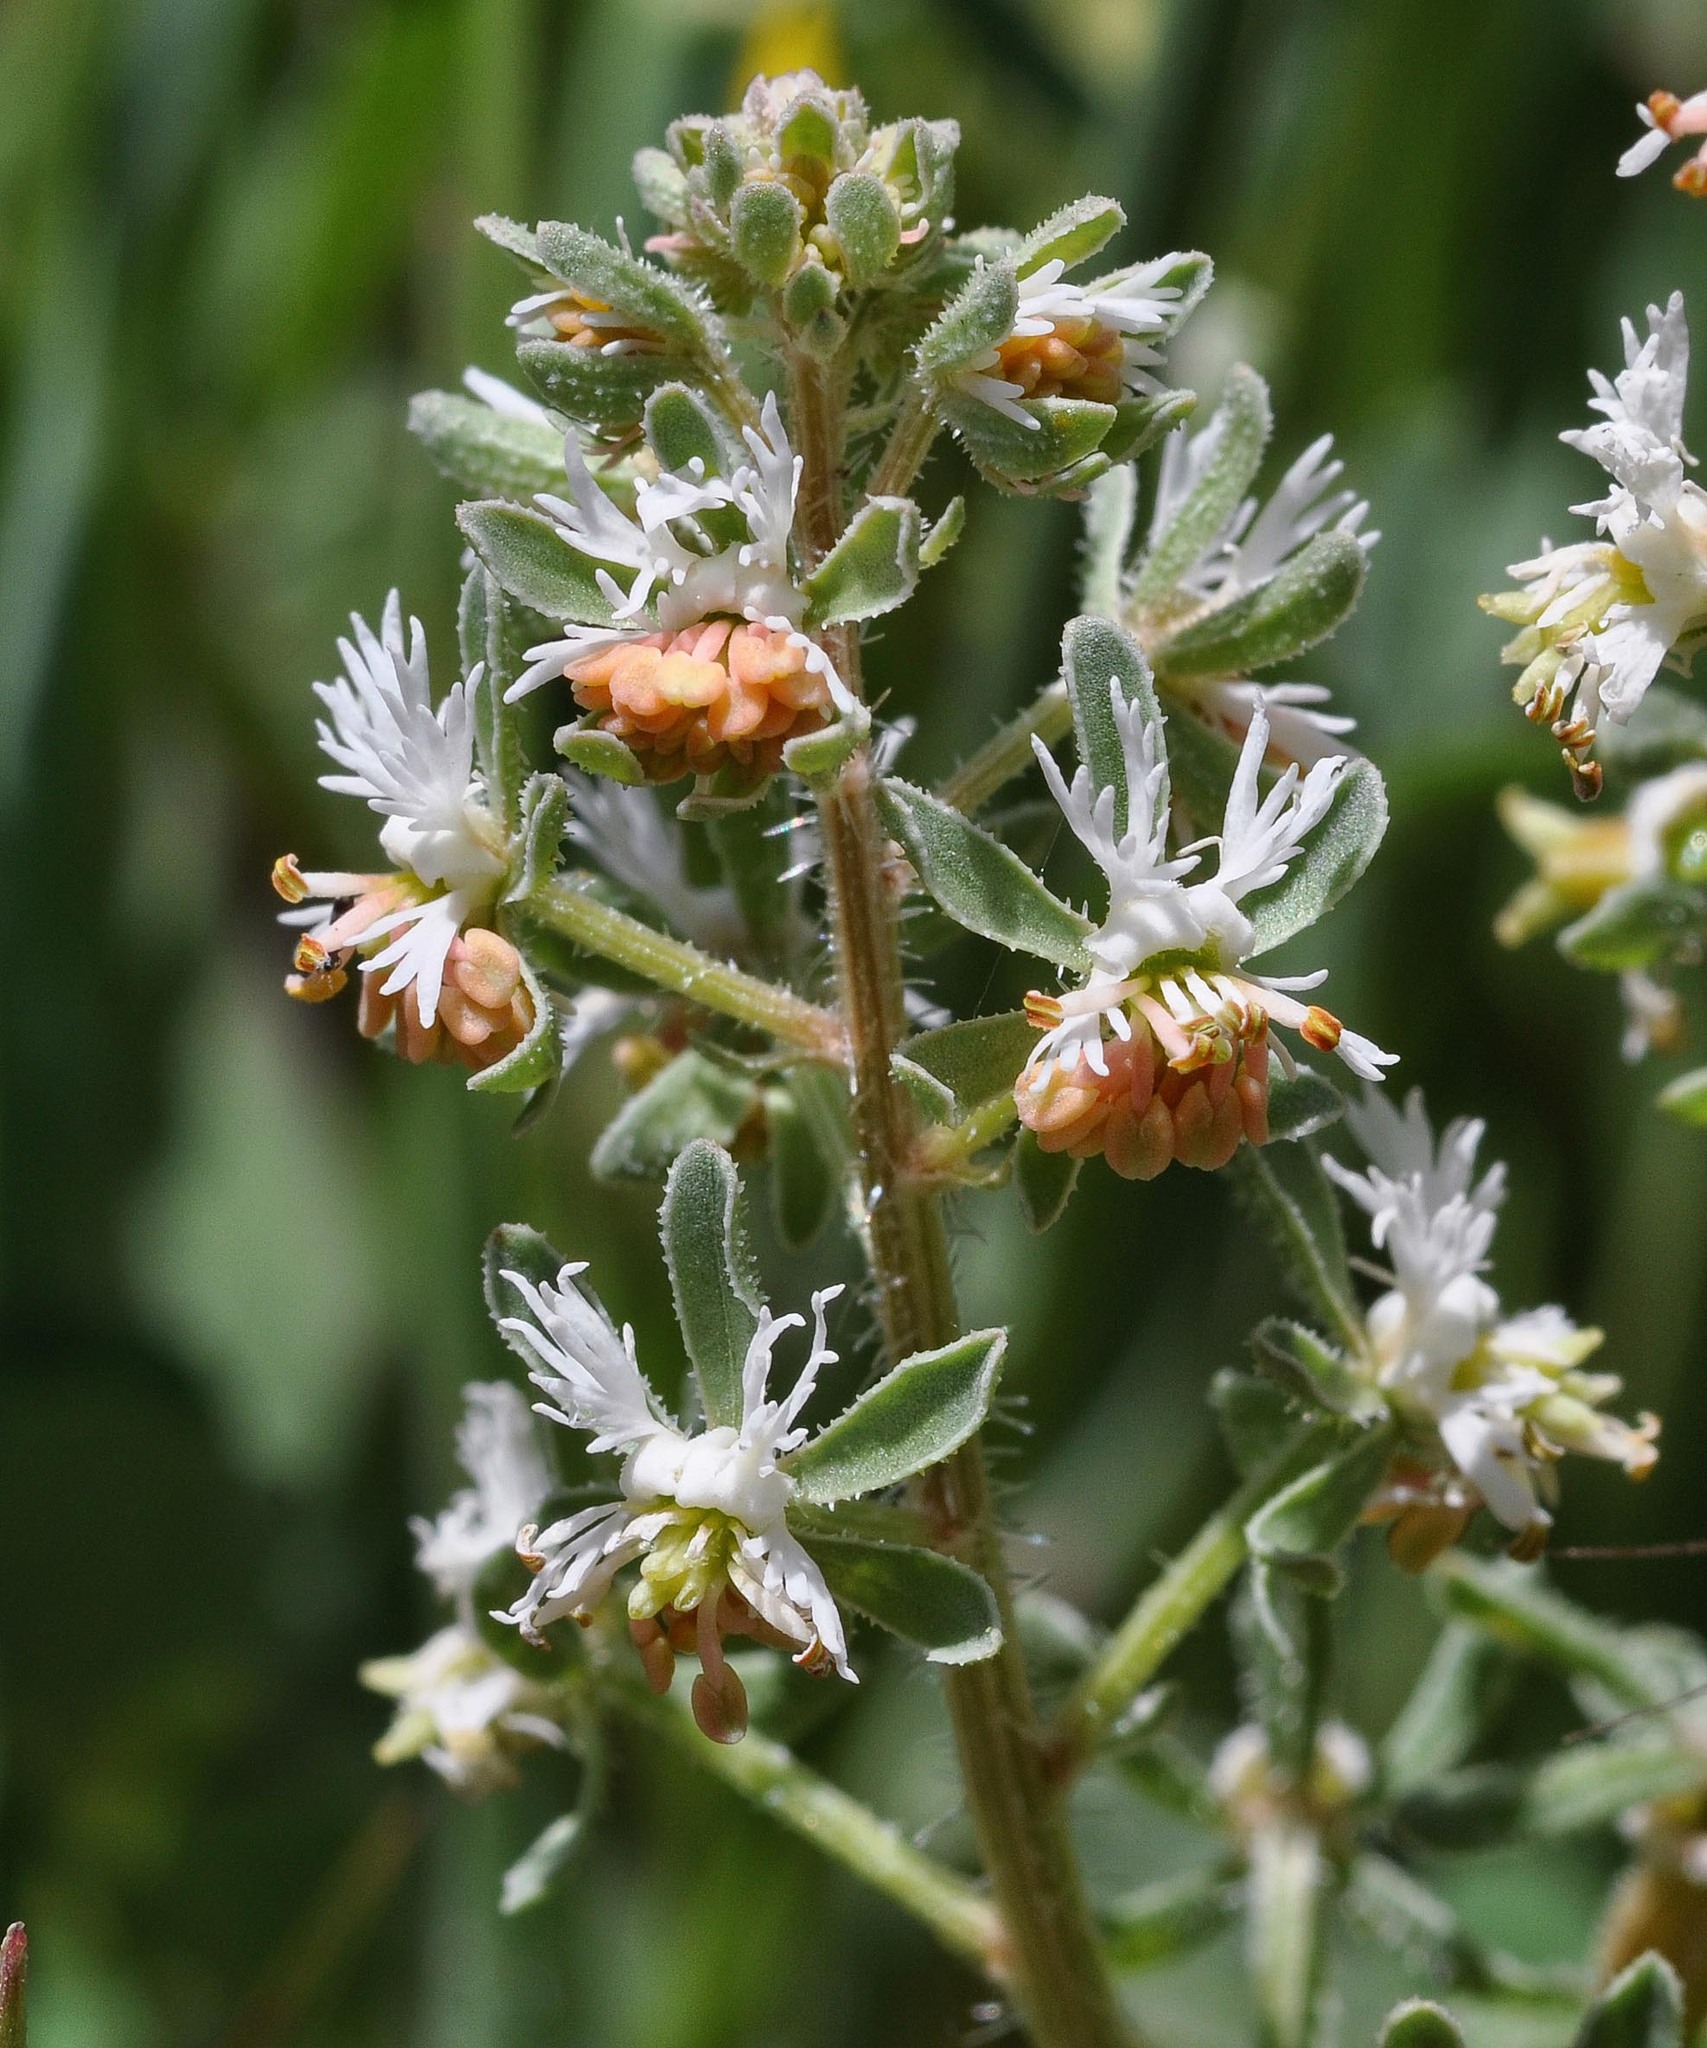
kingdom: Plantae
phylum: Tracheophyta
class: Magnoliopsida
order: Brassicales
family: Resedaceae
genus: Reseda
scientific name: Reseda phyteuma
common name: Corn mignonette
